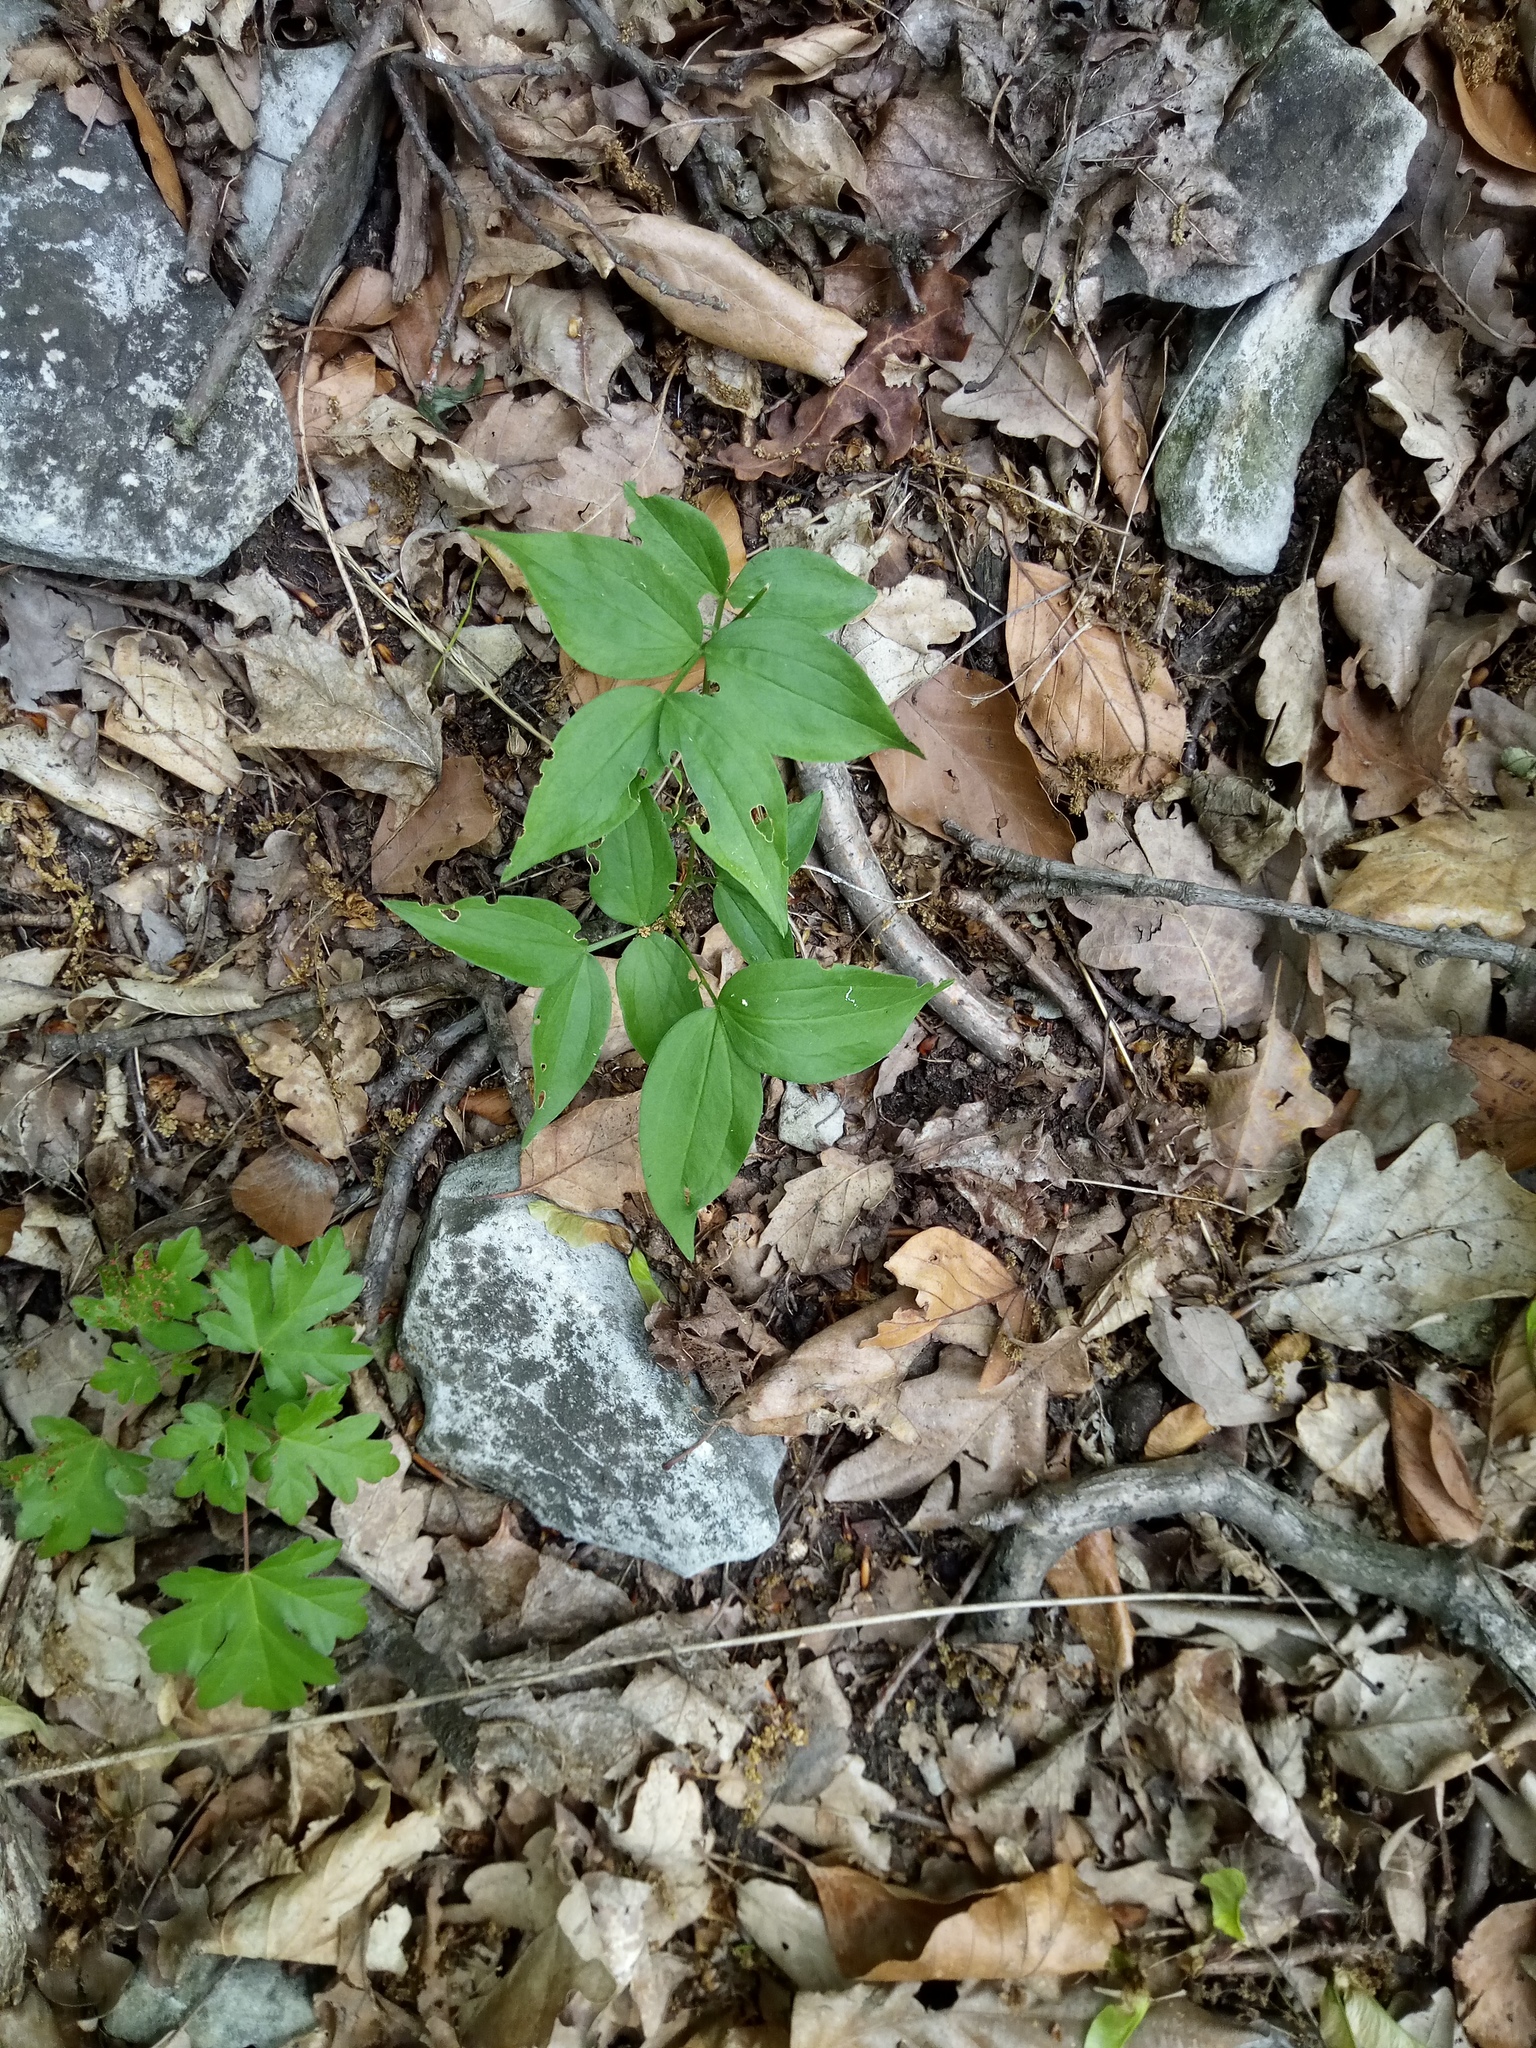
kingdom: Plantae
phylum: Tracheophyta
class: Magnoliopsida
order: Fabales
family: Fabaceae
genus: Lathyrus
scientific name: Lathyrus vernus
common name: Spring pea
